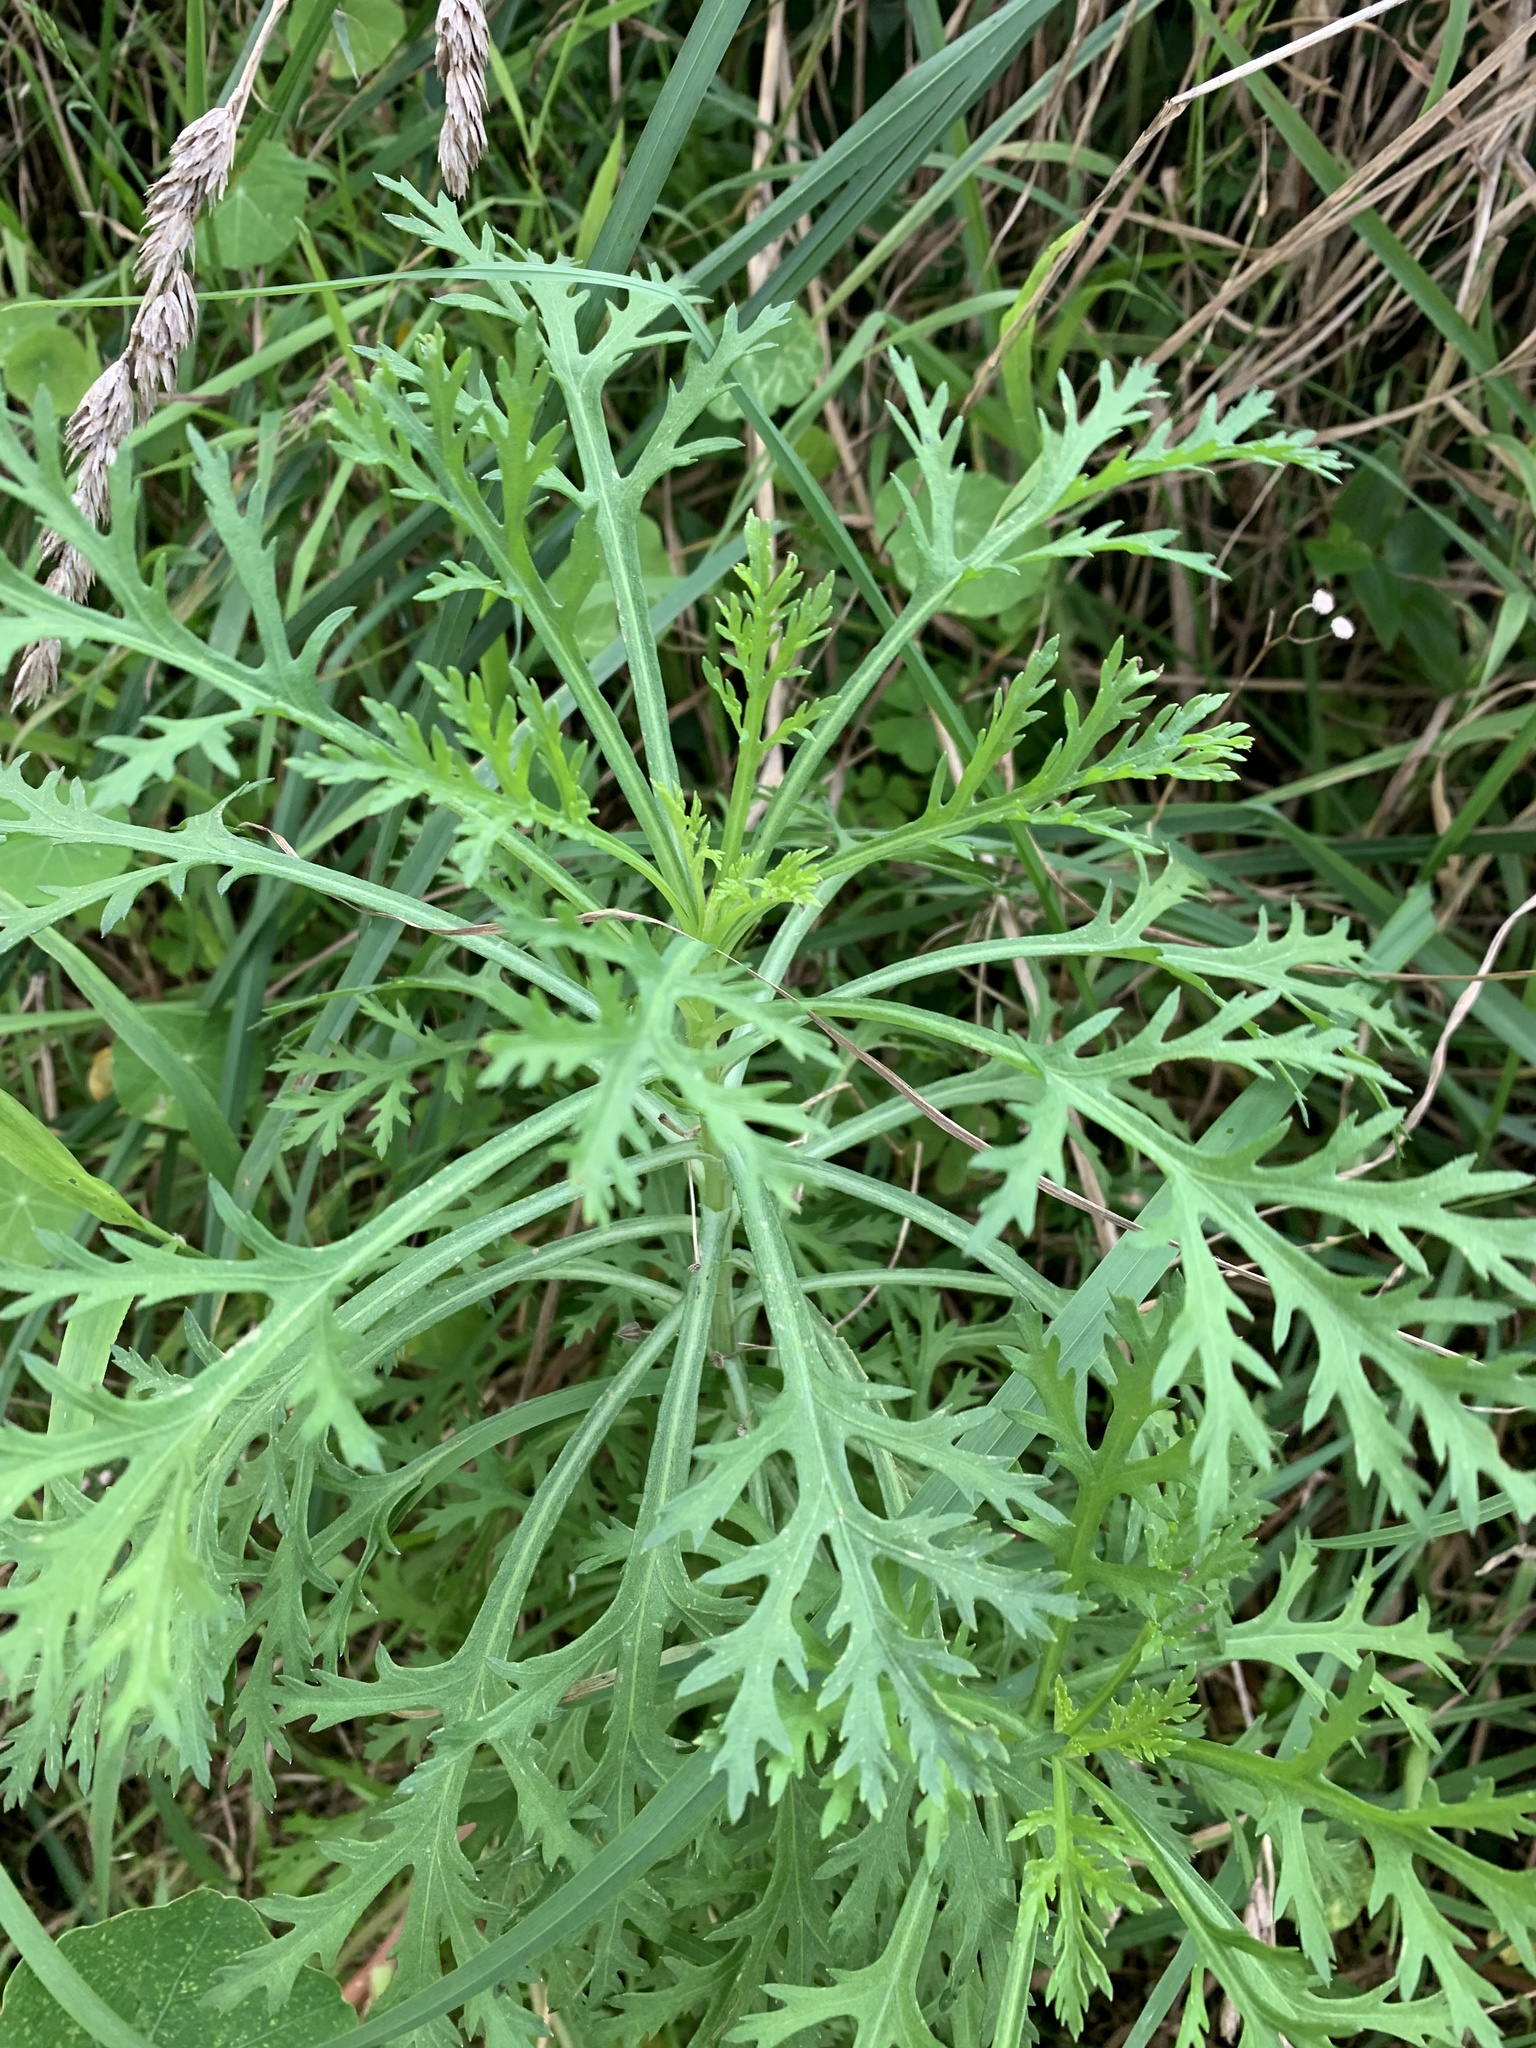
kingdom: Plantae
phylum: Tracheophyta
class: Magnoliopsida
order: Asterales
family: Asteraceae
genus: Argyranthemum
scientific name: Argyranthemum frutescens
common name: Paris daisy
